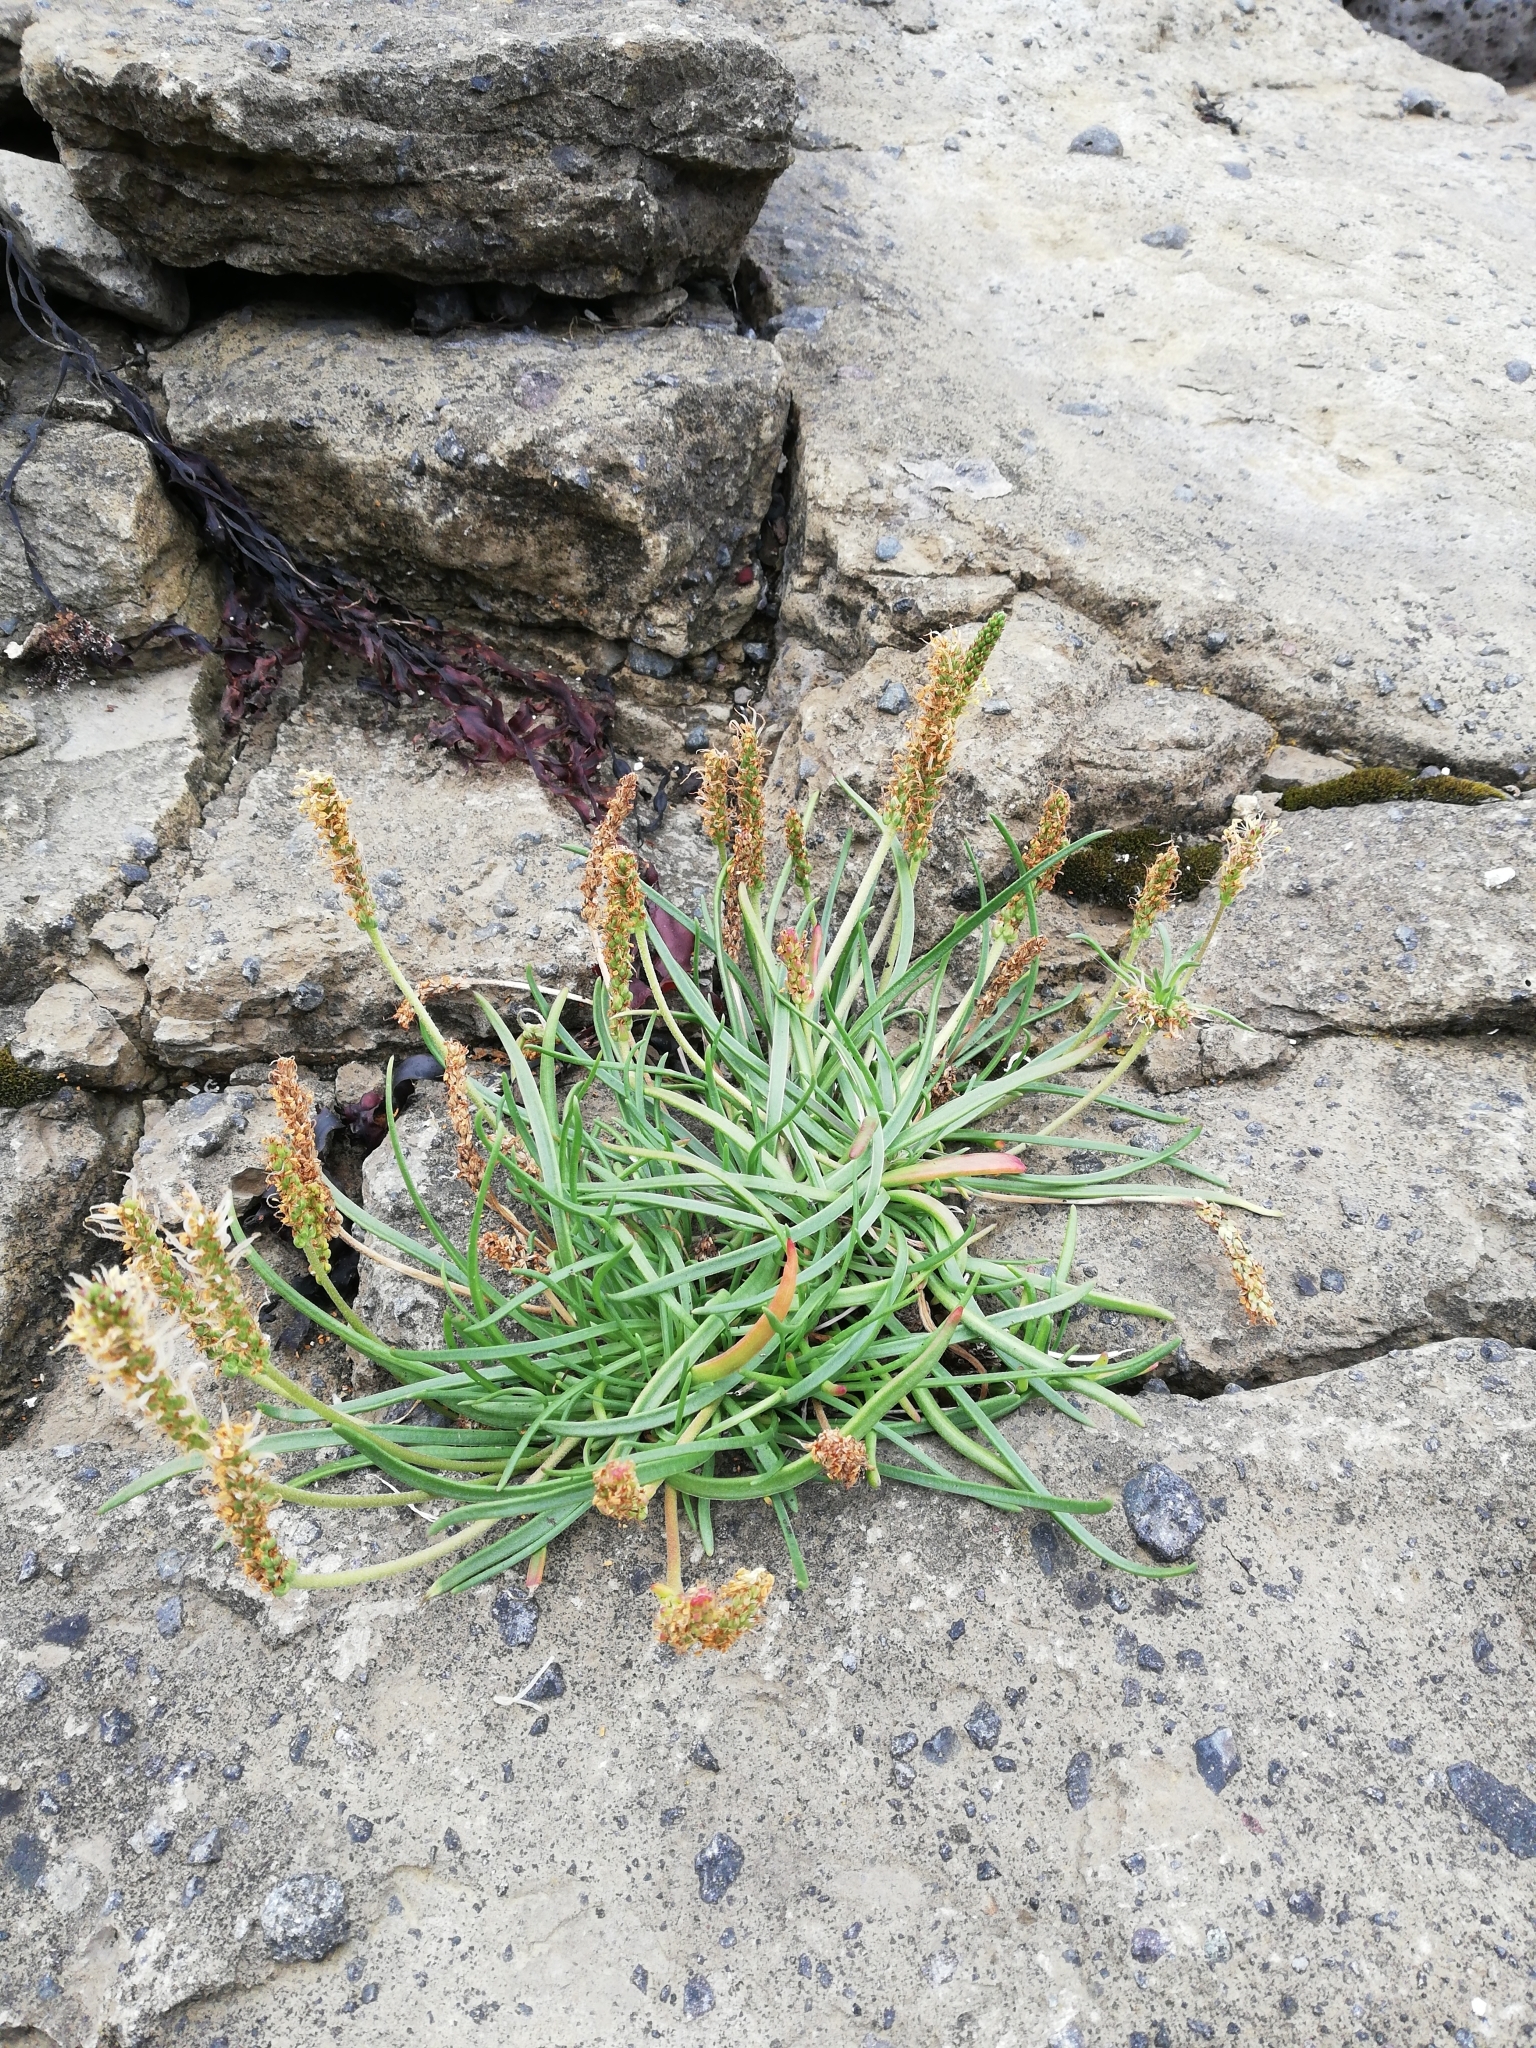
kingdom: Plantae
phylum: Tracheophyta
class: Magnoliopsida
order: Lamiales
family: Plantaginaceae
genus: Plantago
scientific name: Plantago maritima
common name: Sea plantain
